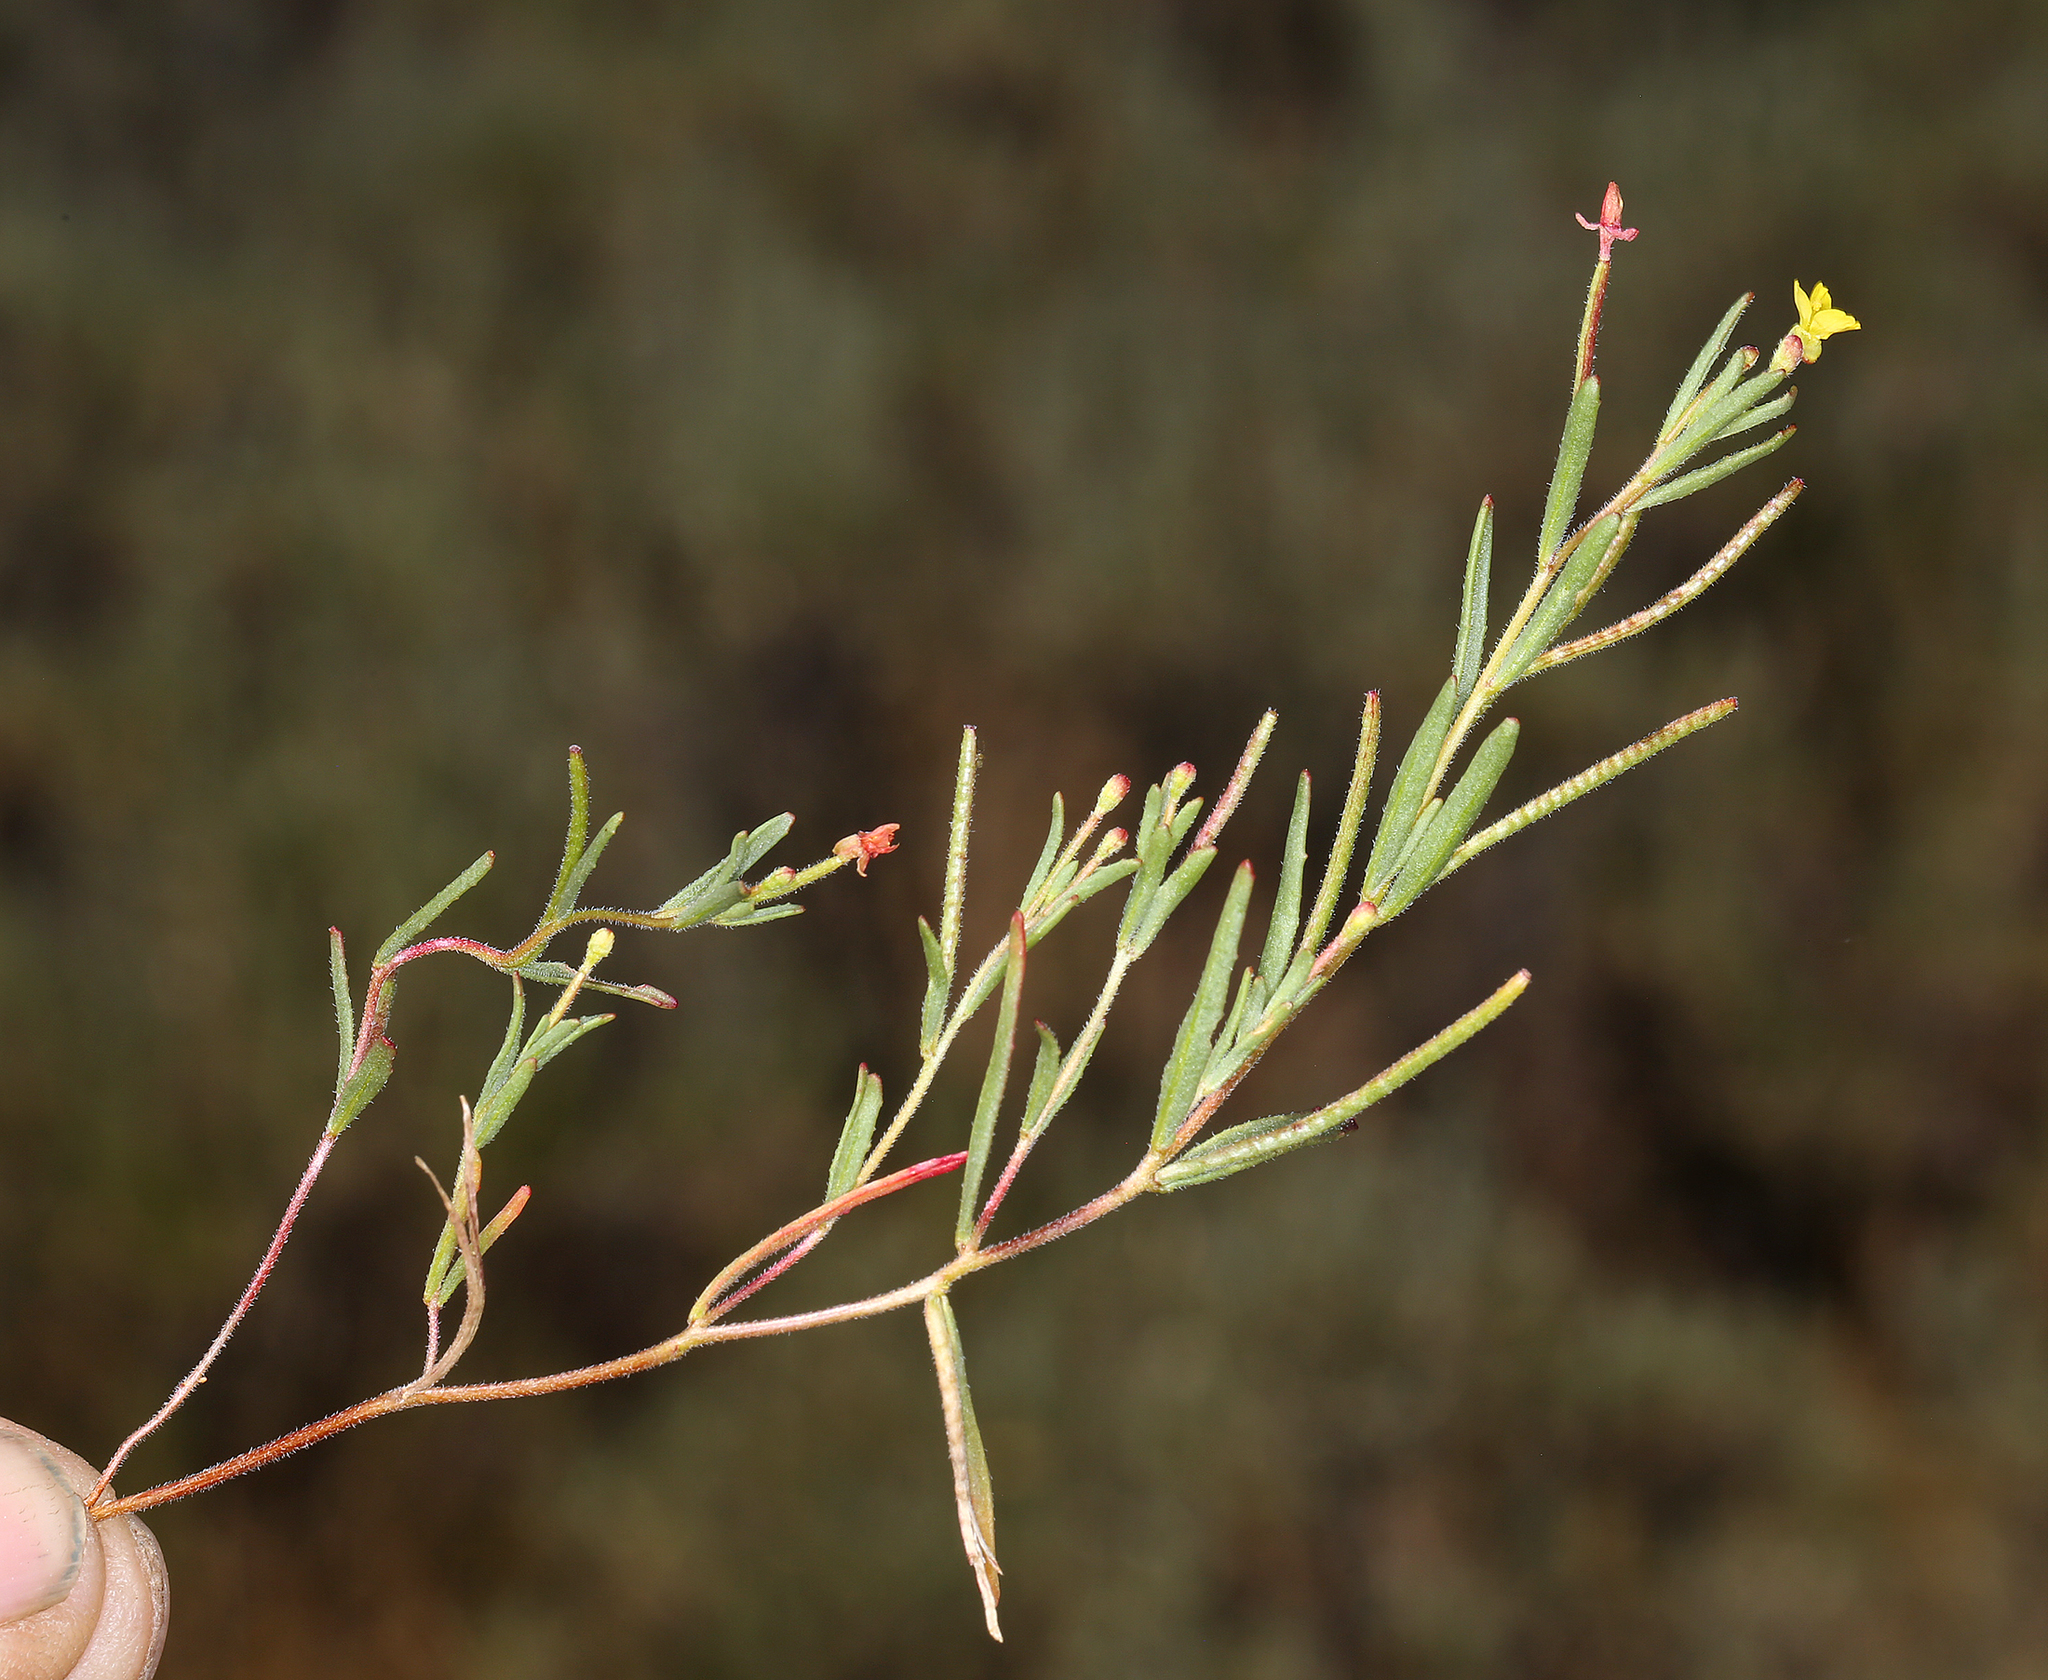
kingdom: Plantae
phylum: Tracheophyta
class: Magnoliopsida
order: Myrtales
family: Onagraceae
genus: Camissonia
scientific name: Camissonia contorta
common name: Contorted suncup
